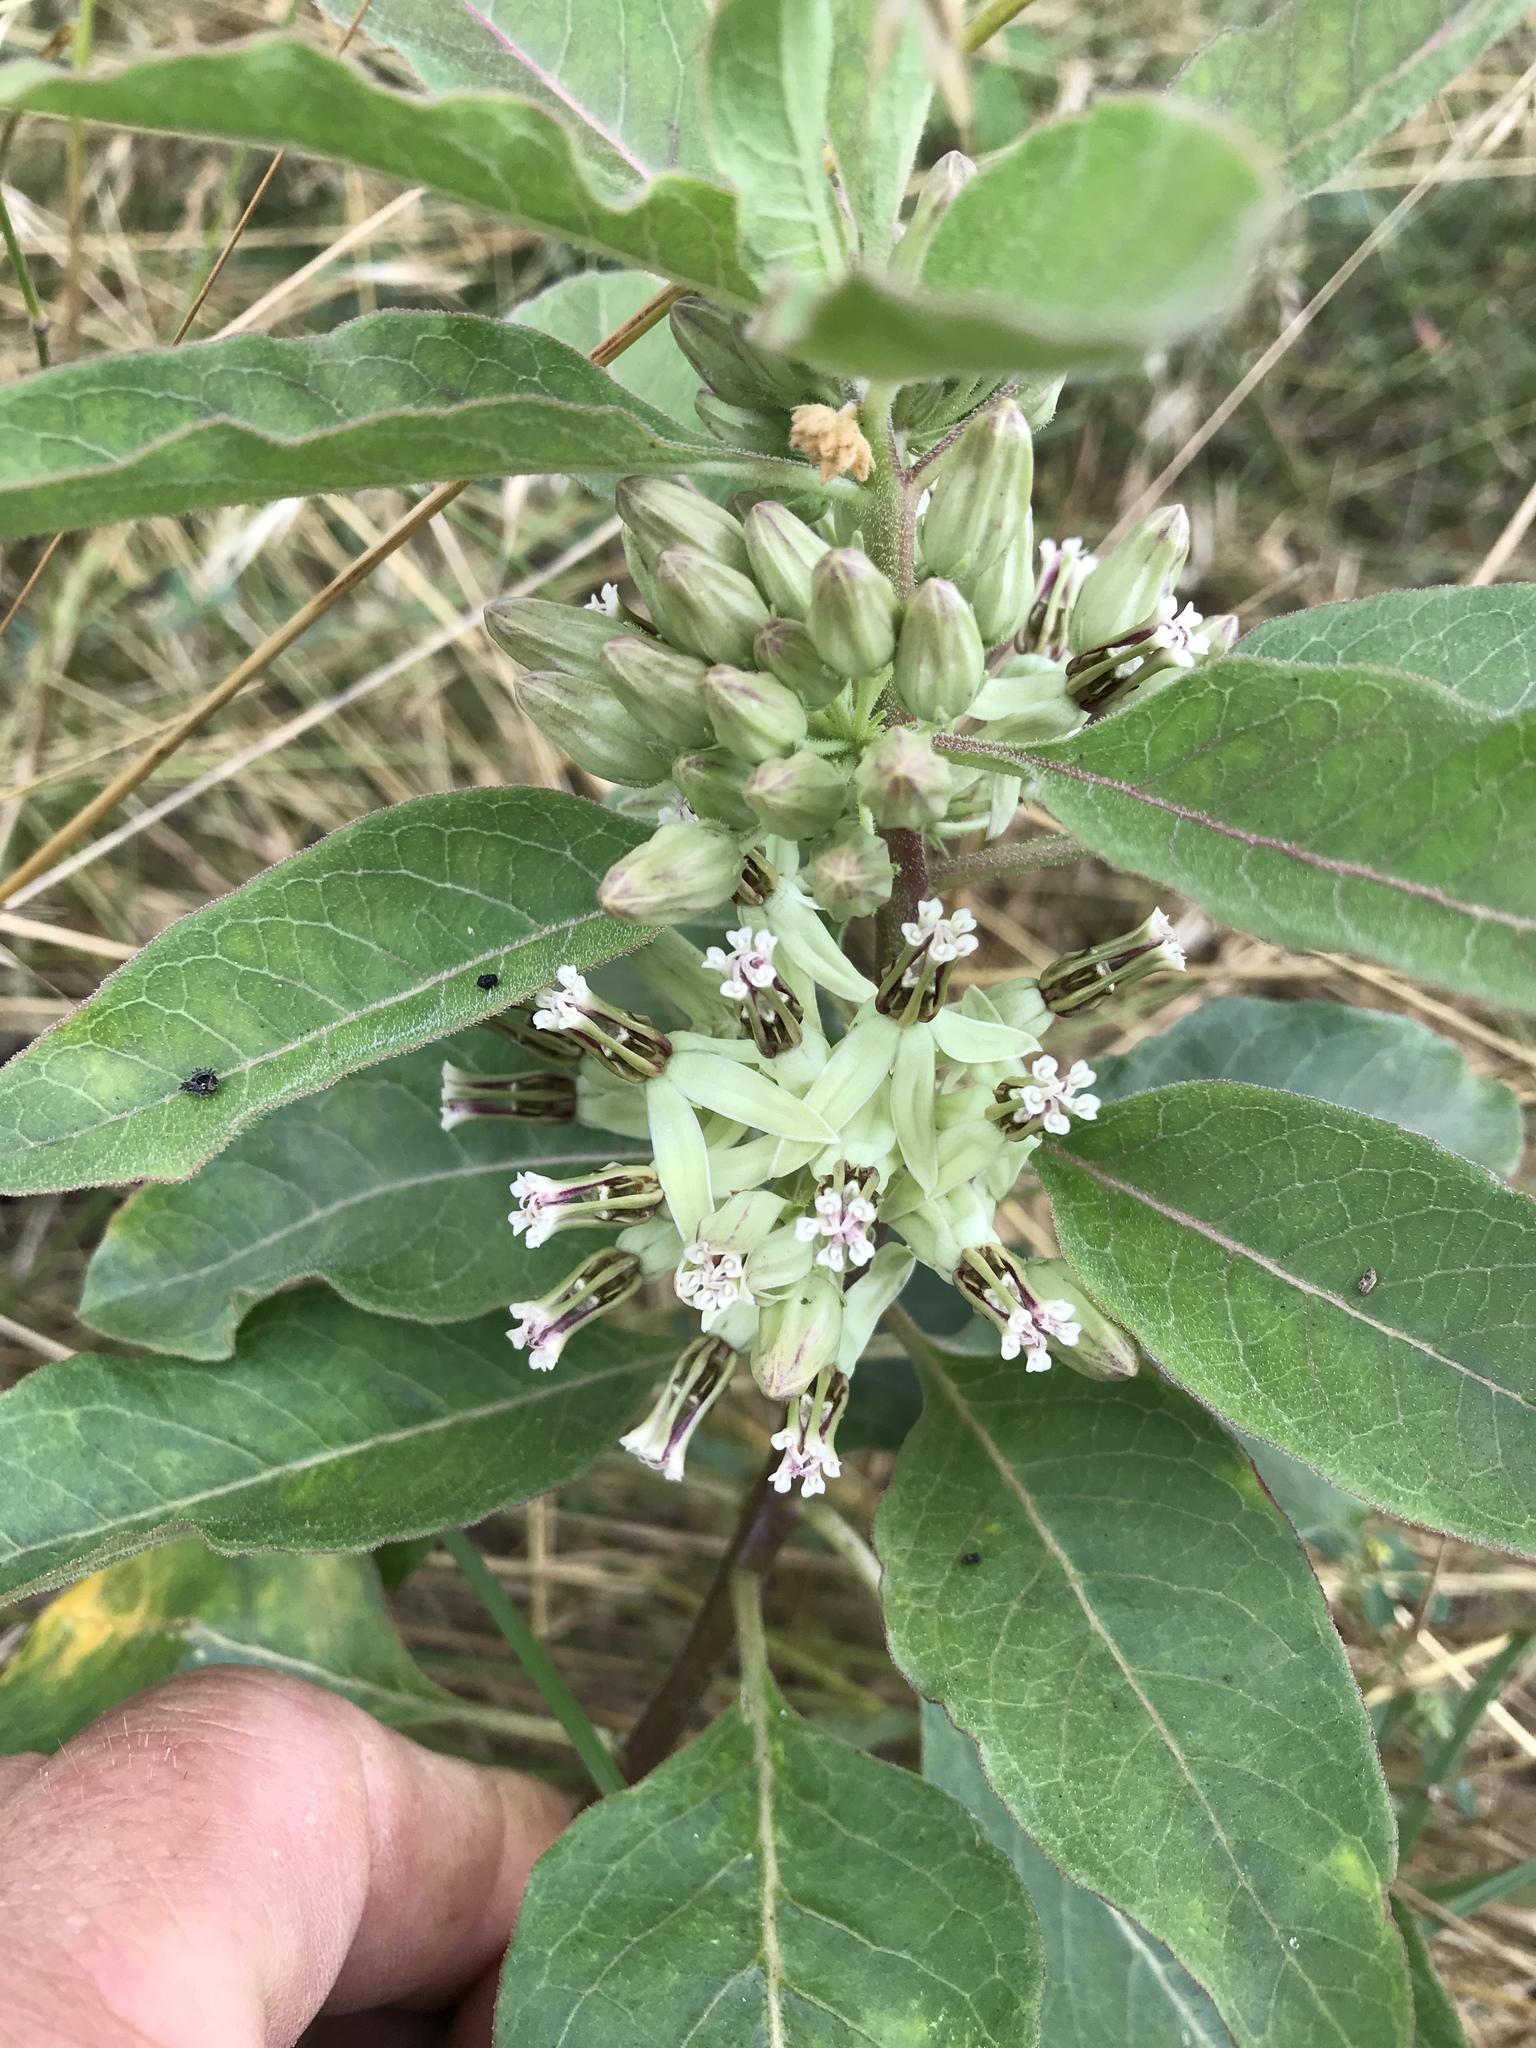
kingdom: Plantae
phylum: Tracheophyta
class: Magnoliopsida
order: Gentianales
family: Apocynaceae
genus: Asclepias
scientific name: Asclepias oenotheroides
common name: Zizotes milkweed
